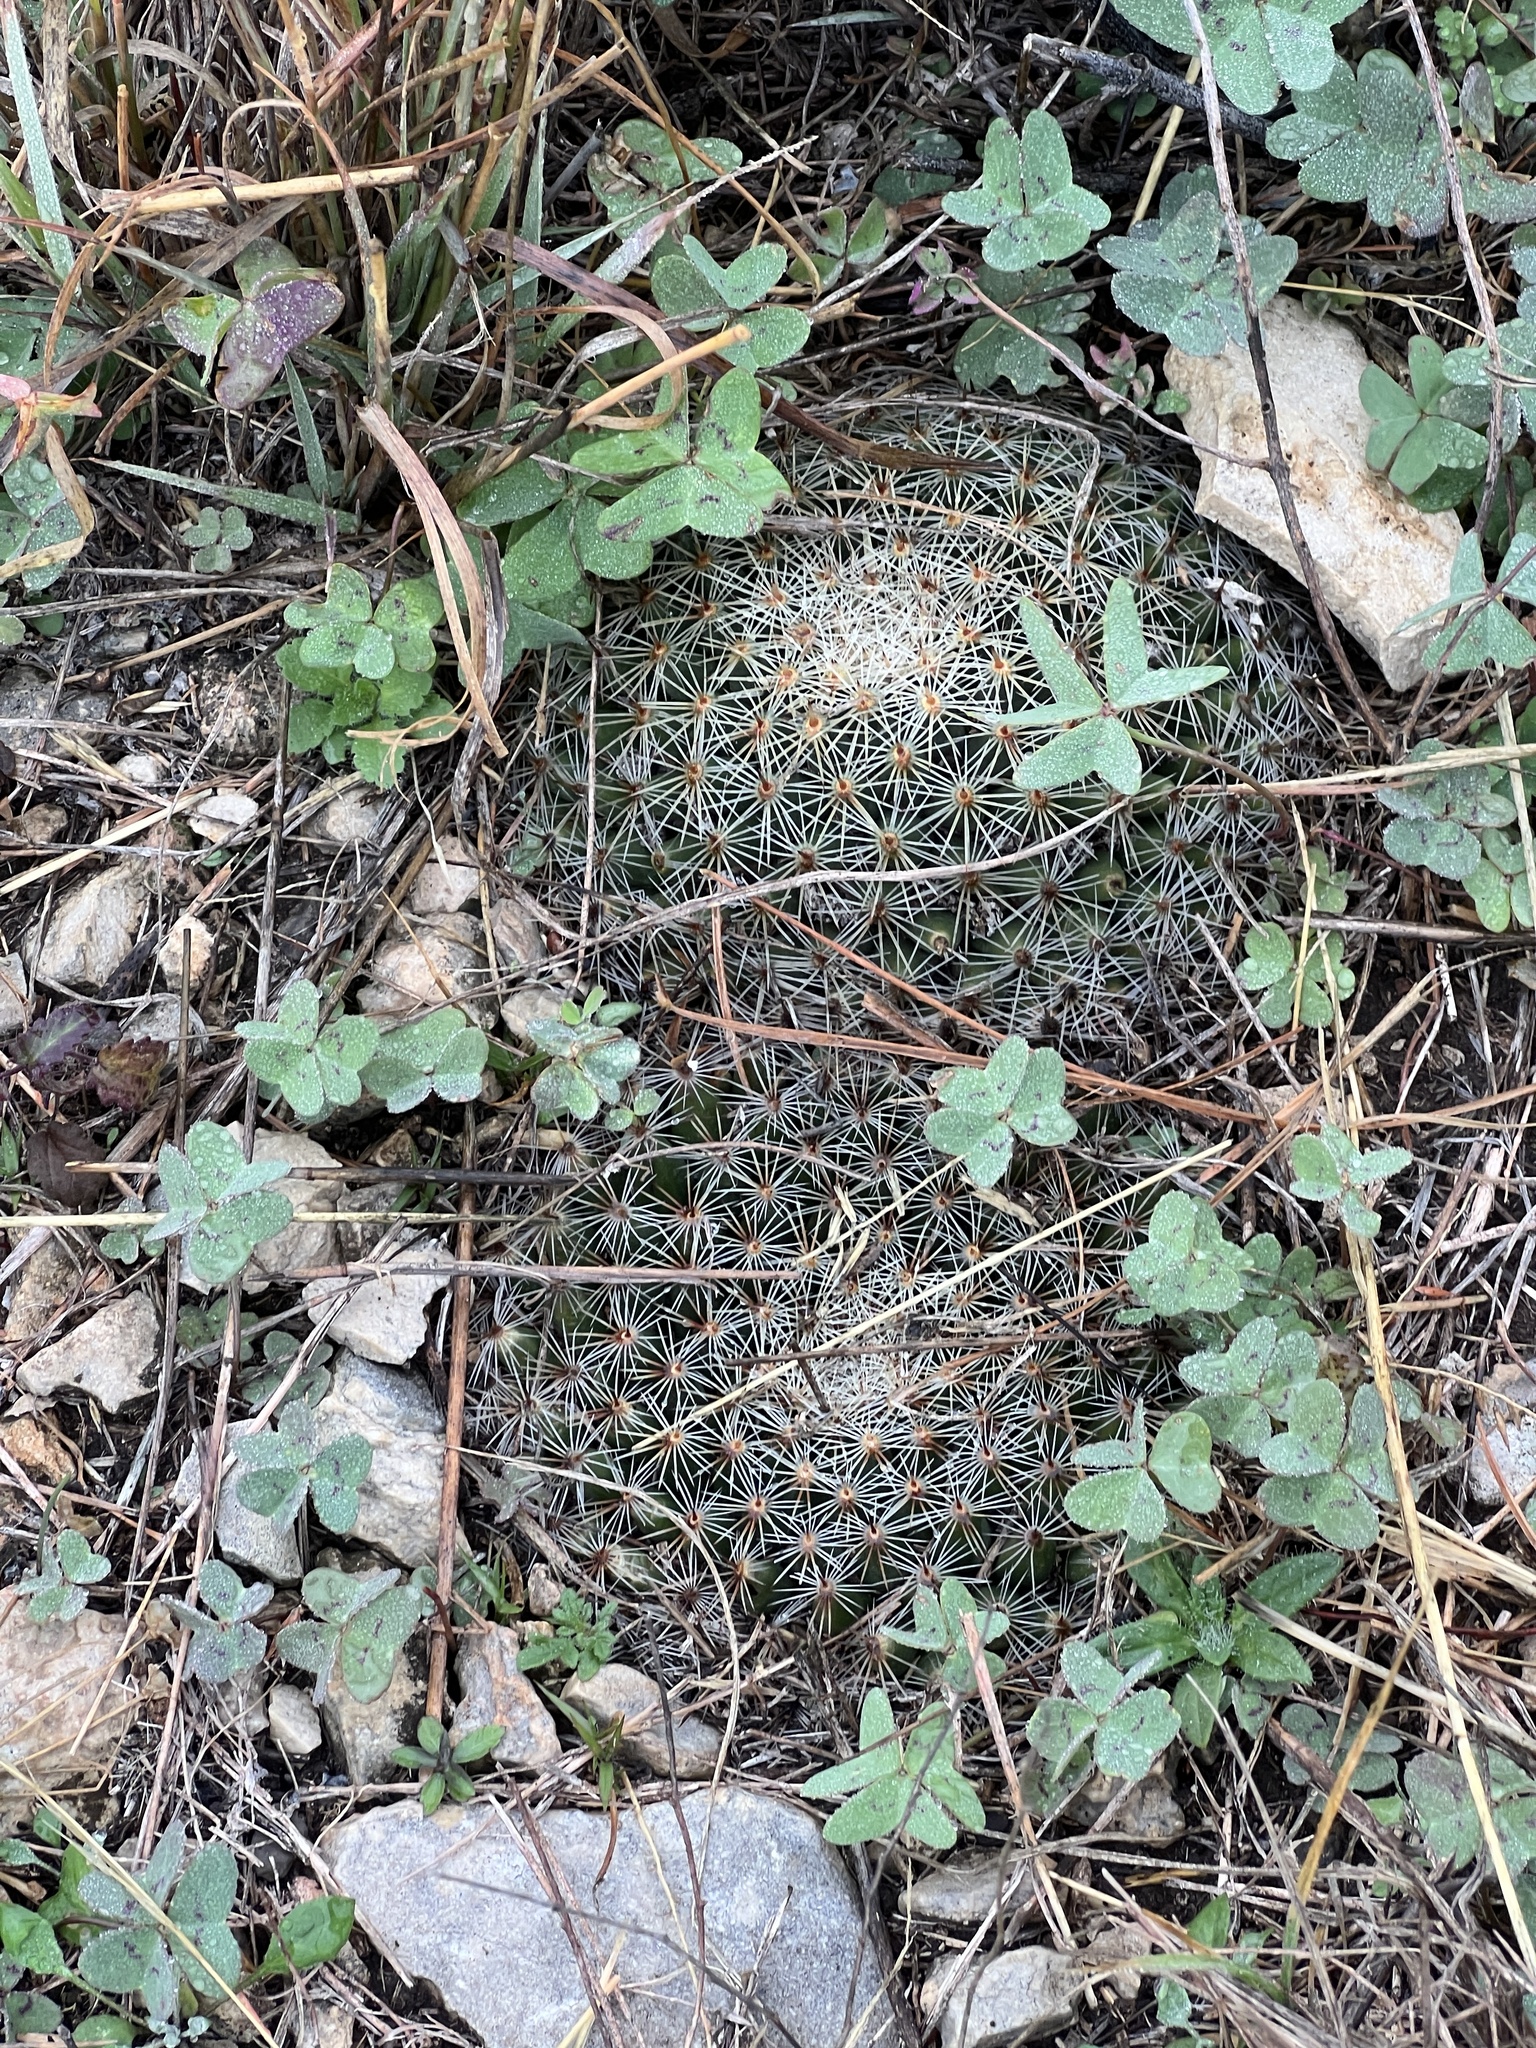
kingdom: Plantae
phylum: Tracheophyta
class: Magnoliopsida
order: Caryophyllales
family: Cactaceae
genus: Mammillaria
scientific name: Mammillaria heyderi
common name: Little nipple cactus
